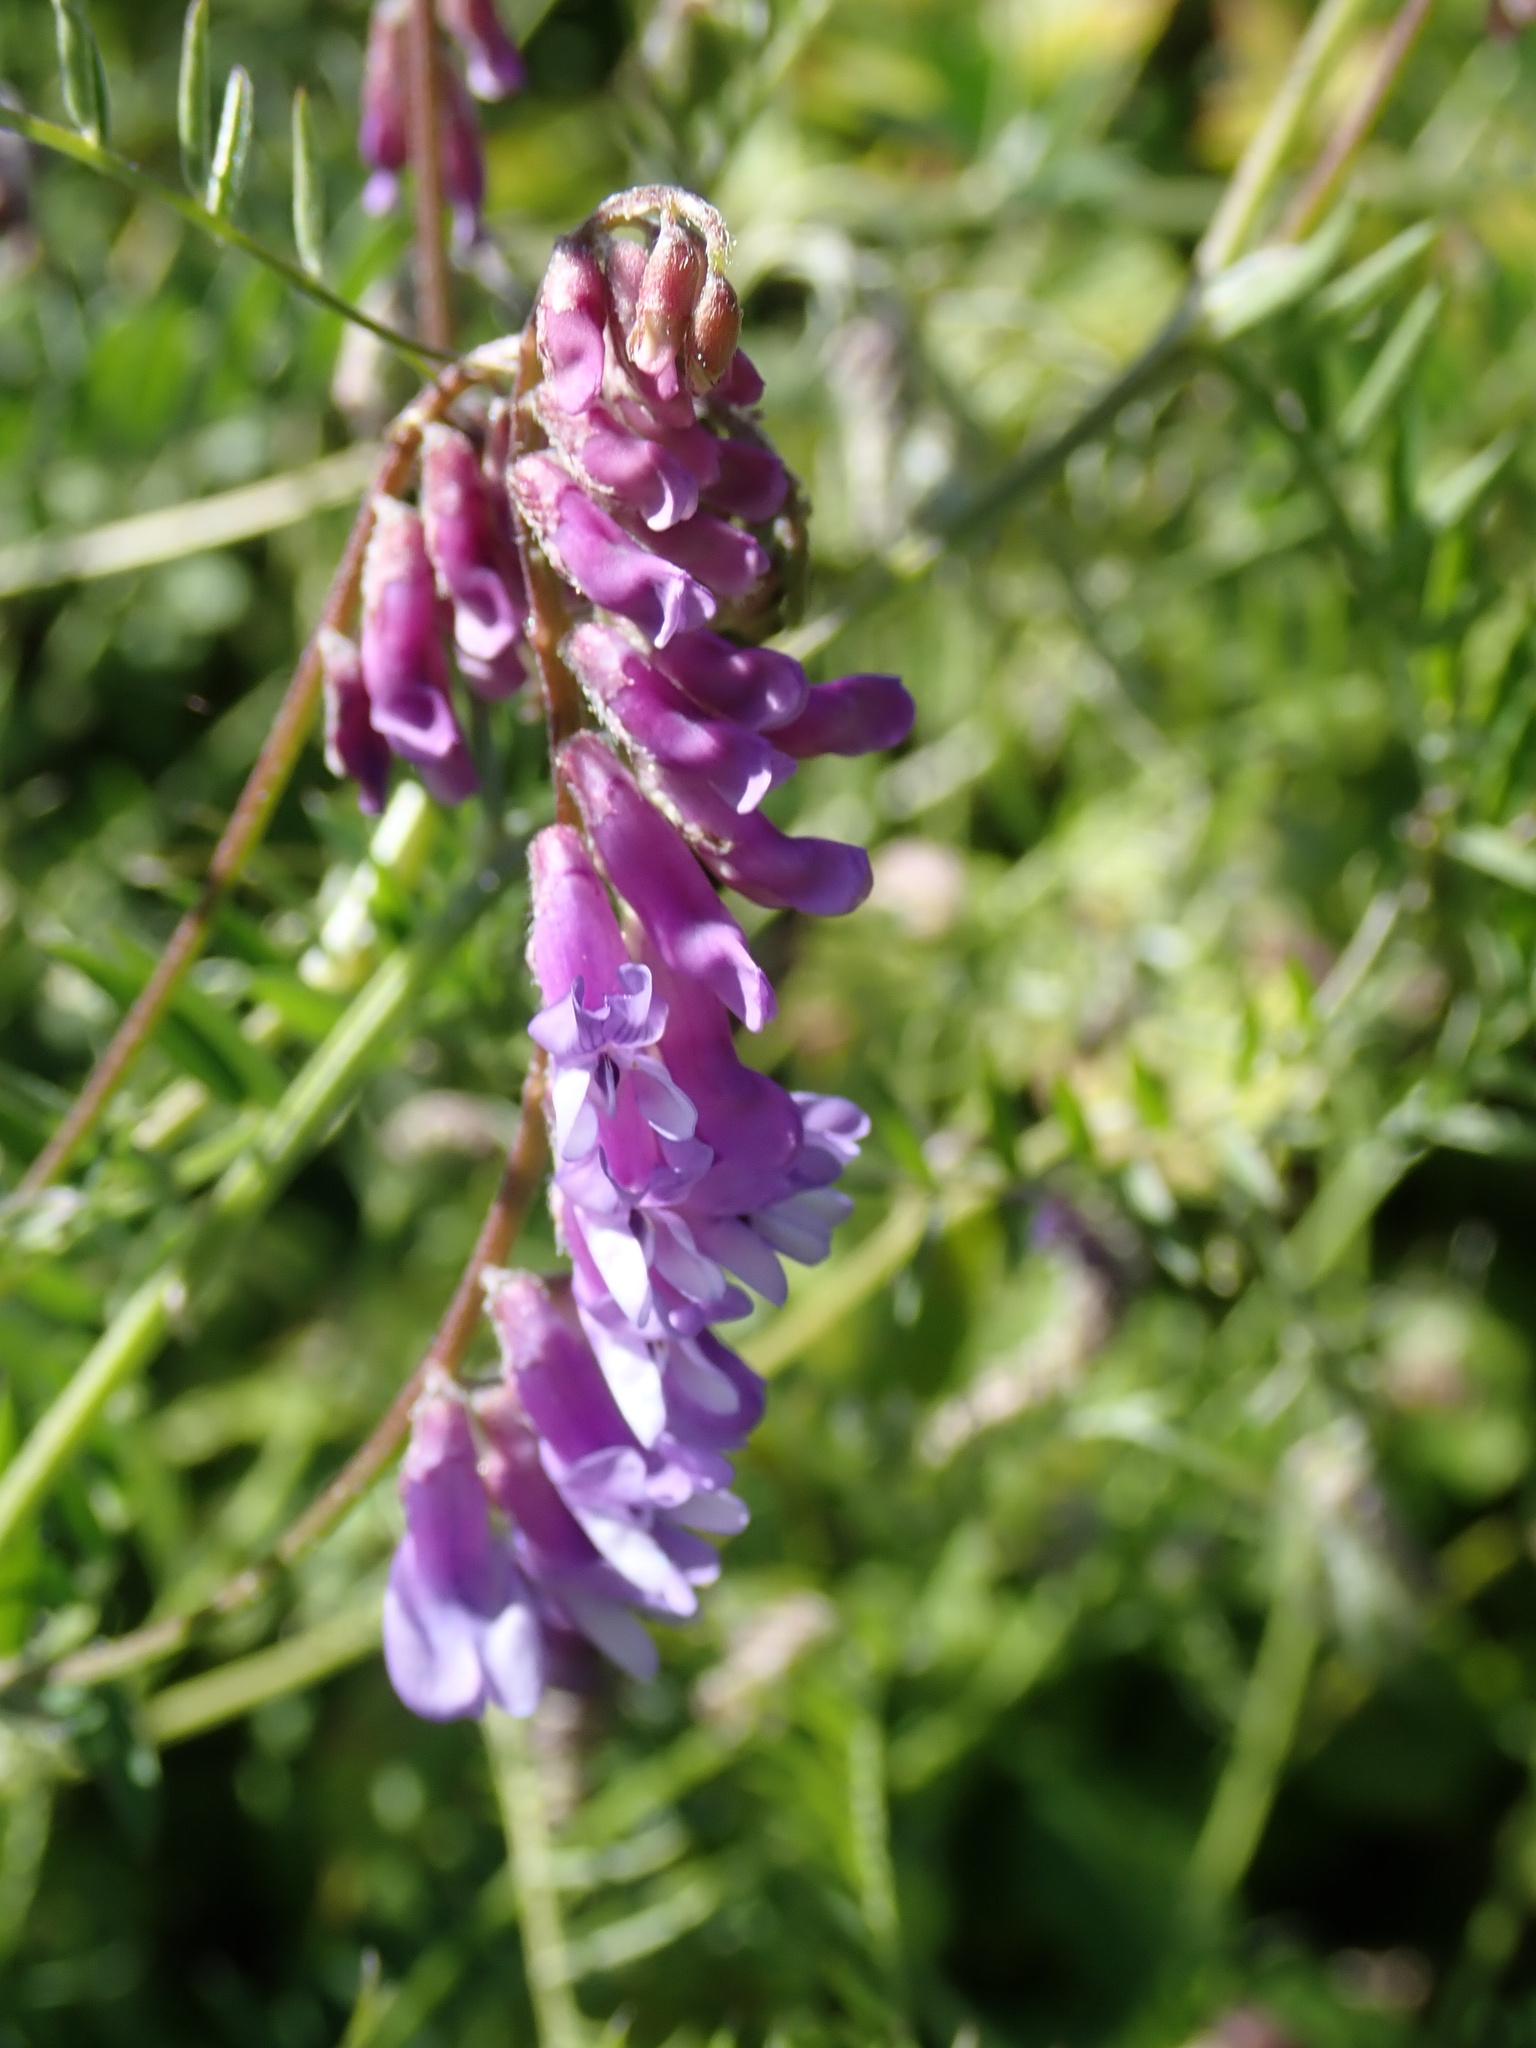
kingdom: Plantae
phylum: Tracheophyta
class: Magnoliopsida
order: Fabales
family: Fabaceae
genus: Vicia
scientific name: Vicia cracca
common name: Bird vetch
